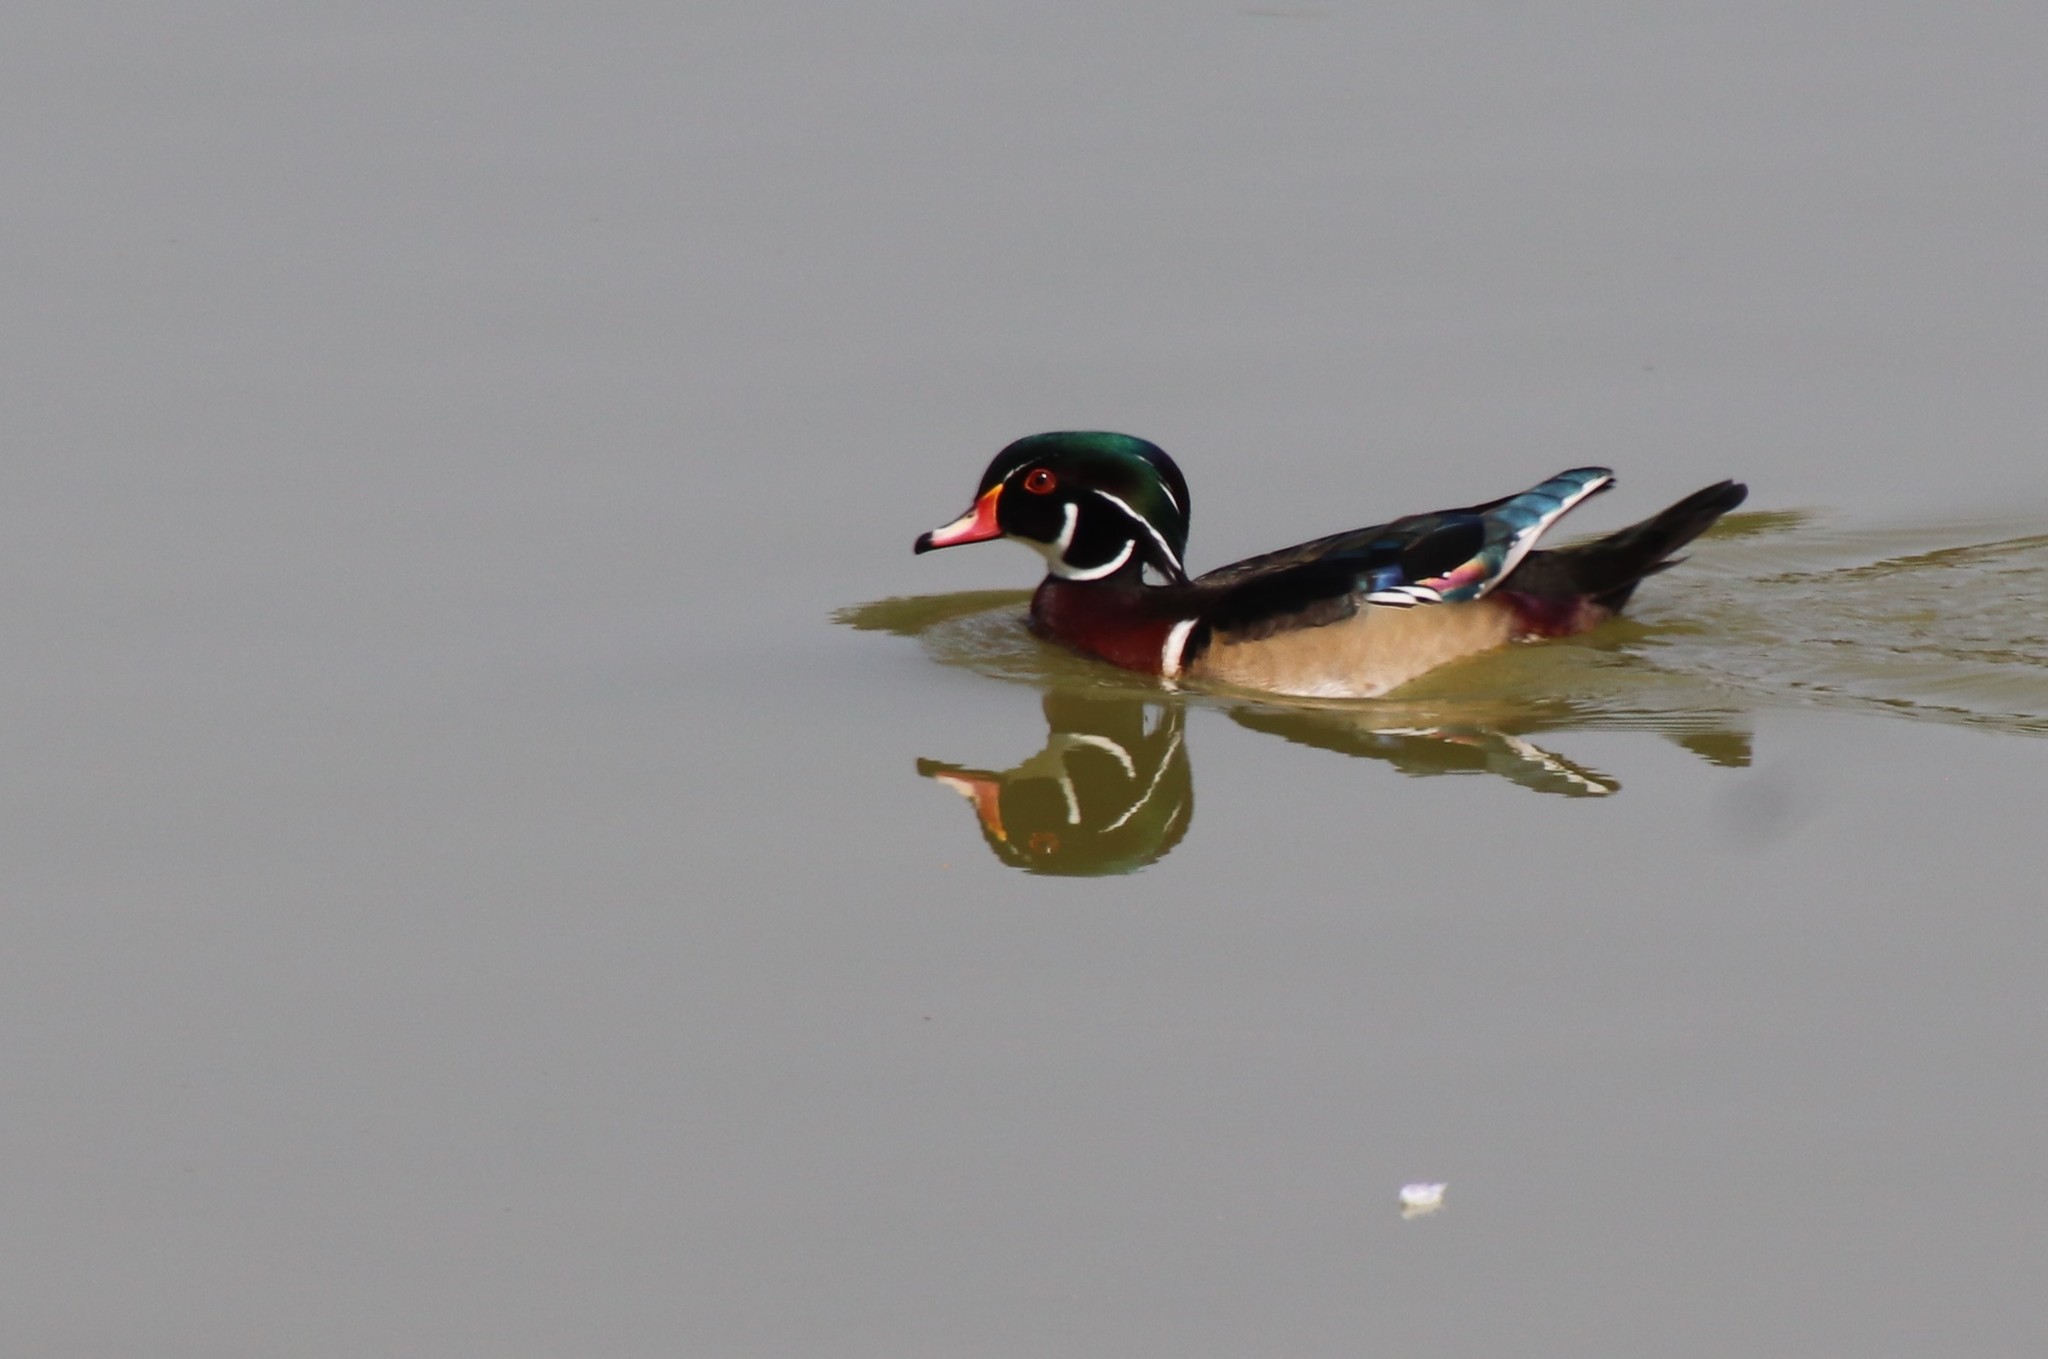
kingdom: Animalia
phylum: Chordata
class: Aves
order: Anseriformes
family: Anatidae
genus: Aix
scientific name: Aix sponsa
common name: Wood duck
